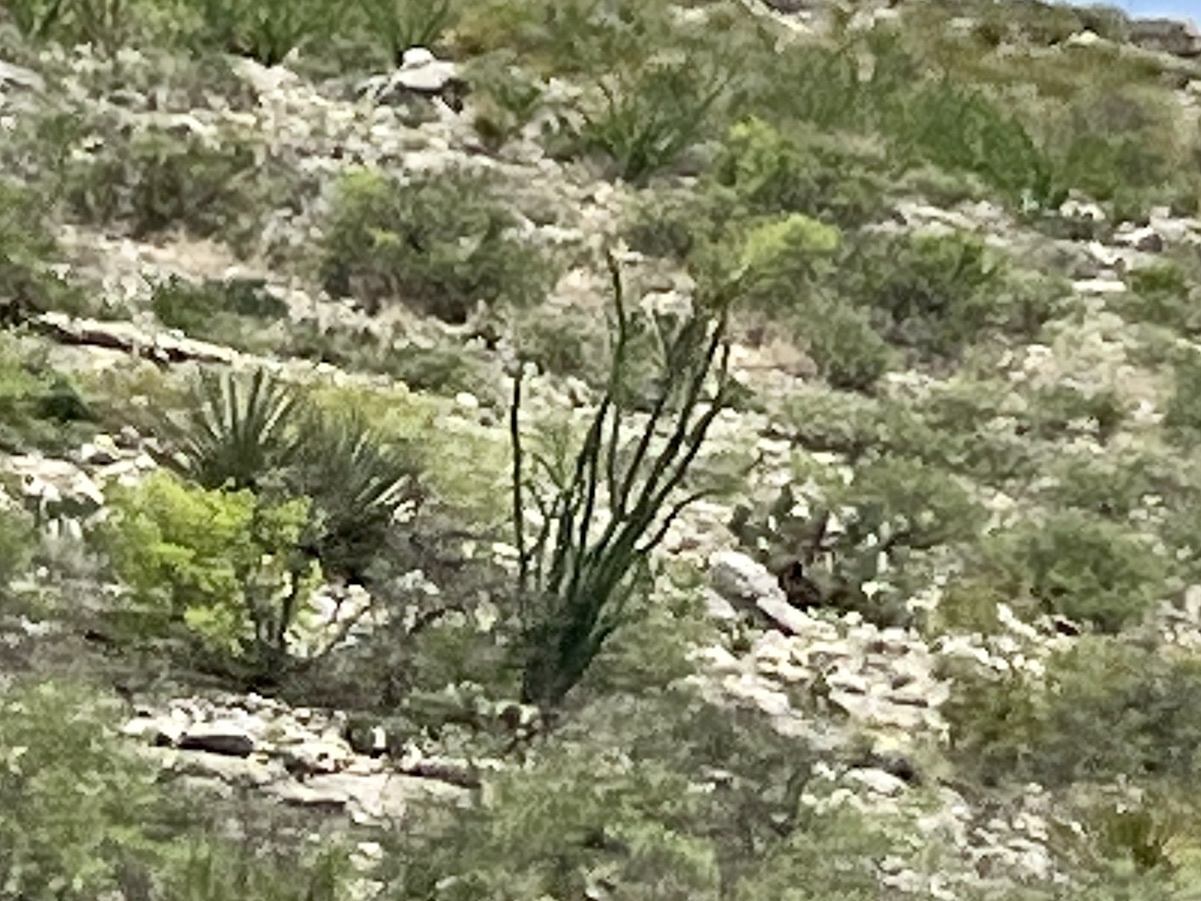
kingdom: Plantae
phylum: Tracheophyta
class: Magnoliopsida
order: Ericales
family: Fouquieriaceae
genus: Fouquieria
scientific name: Fouquieria splendens
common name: Vine-cactus
